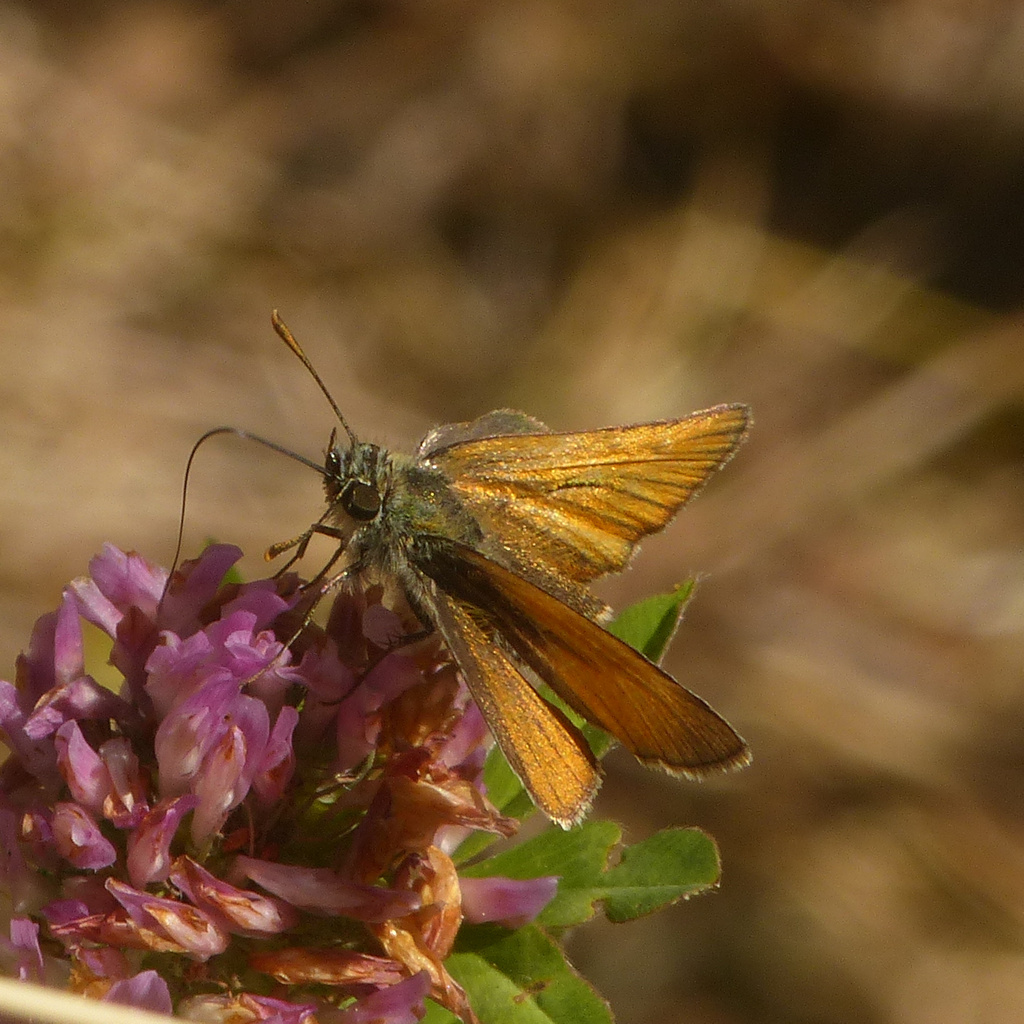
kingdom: Animalia
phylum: Arthropoda
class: Insecta
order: Lepidoptera
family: Hesperiidae
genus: Thymelicus
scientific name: Thymelicus sylvestris
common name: Small skipper
